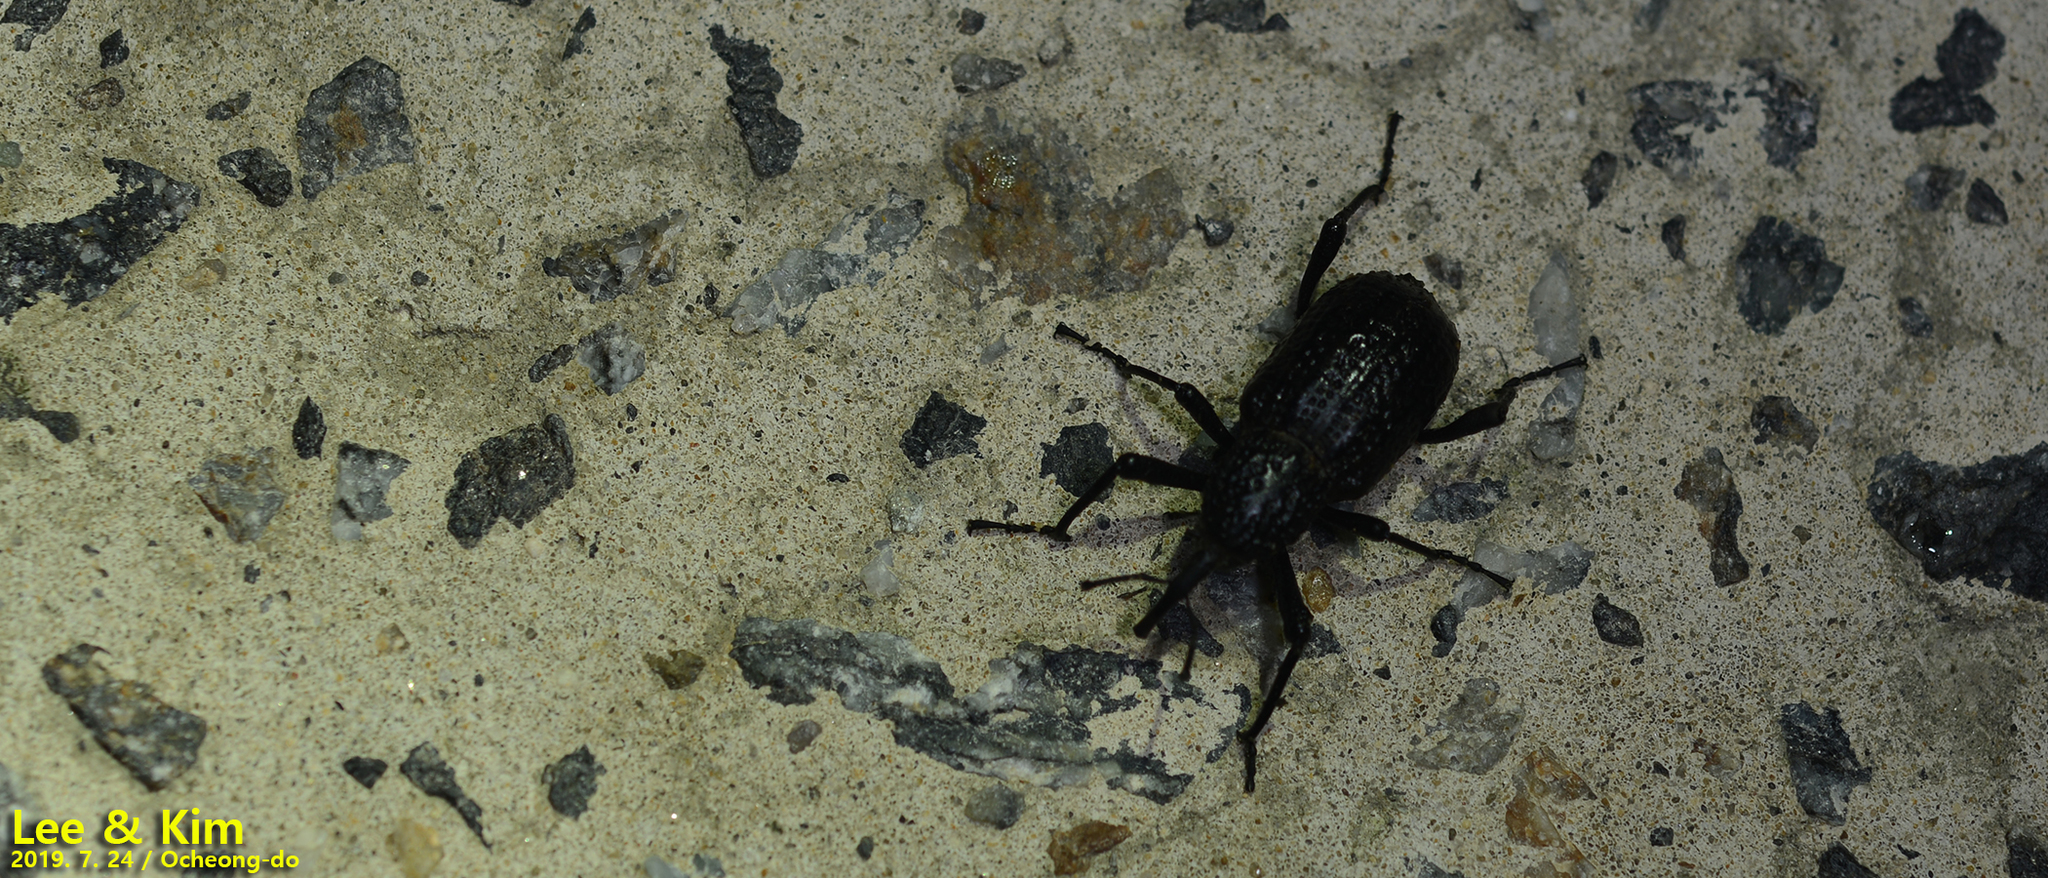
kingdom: Animalia
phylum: Arthropoda
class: Insecta
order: Coleoptera
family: Dryophthoridae
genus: Sipalinus
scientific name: Sipalinus gigas
